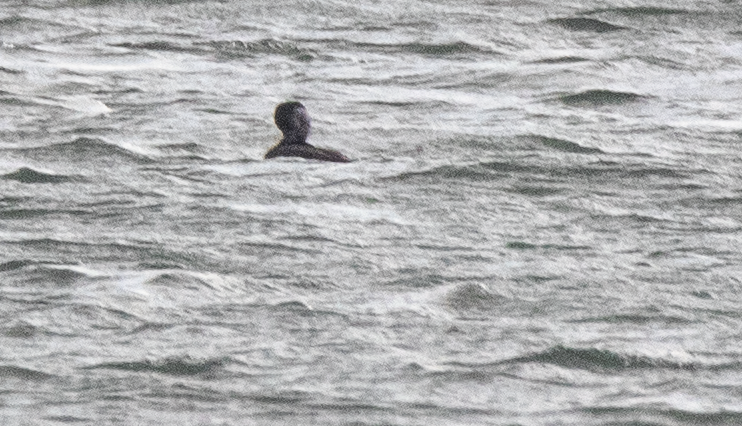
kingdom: Animalia
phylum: Chordata
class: Aves
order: Anseriformes
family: Anatidae
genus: Melanitta
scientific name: Melanitta nigra
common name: Common scoter
